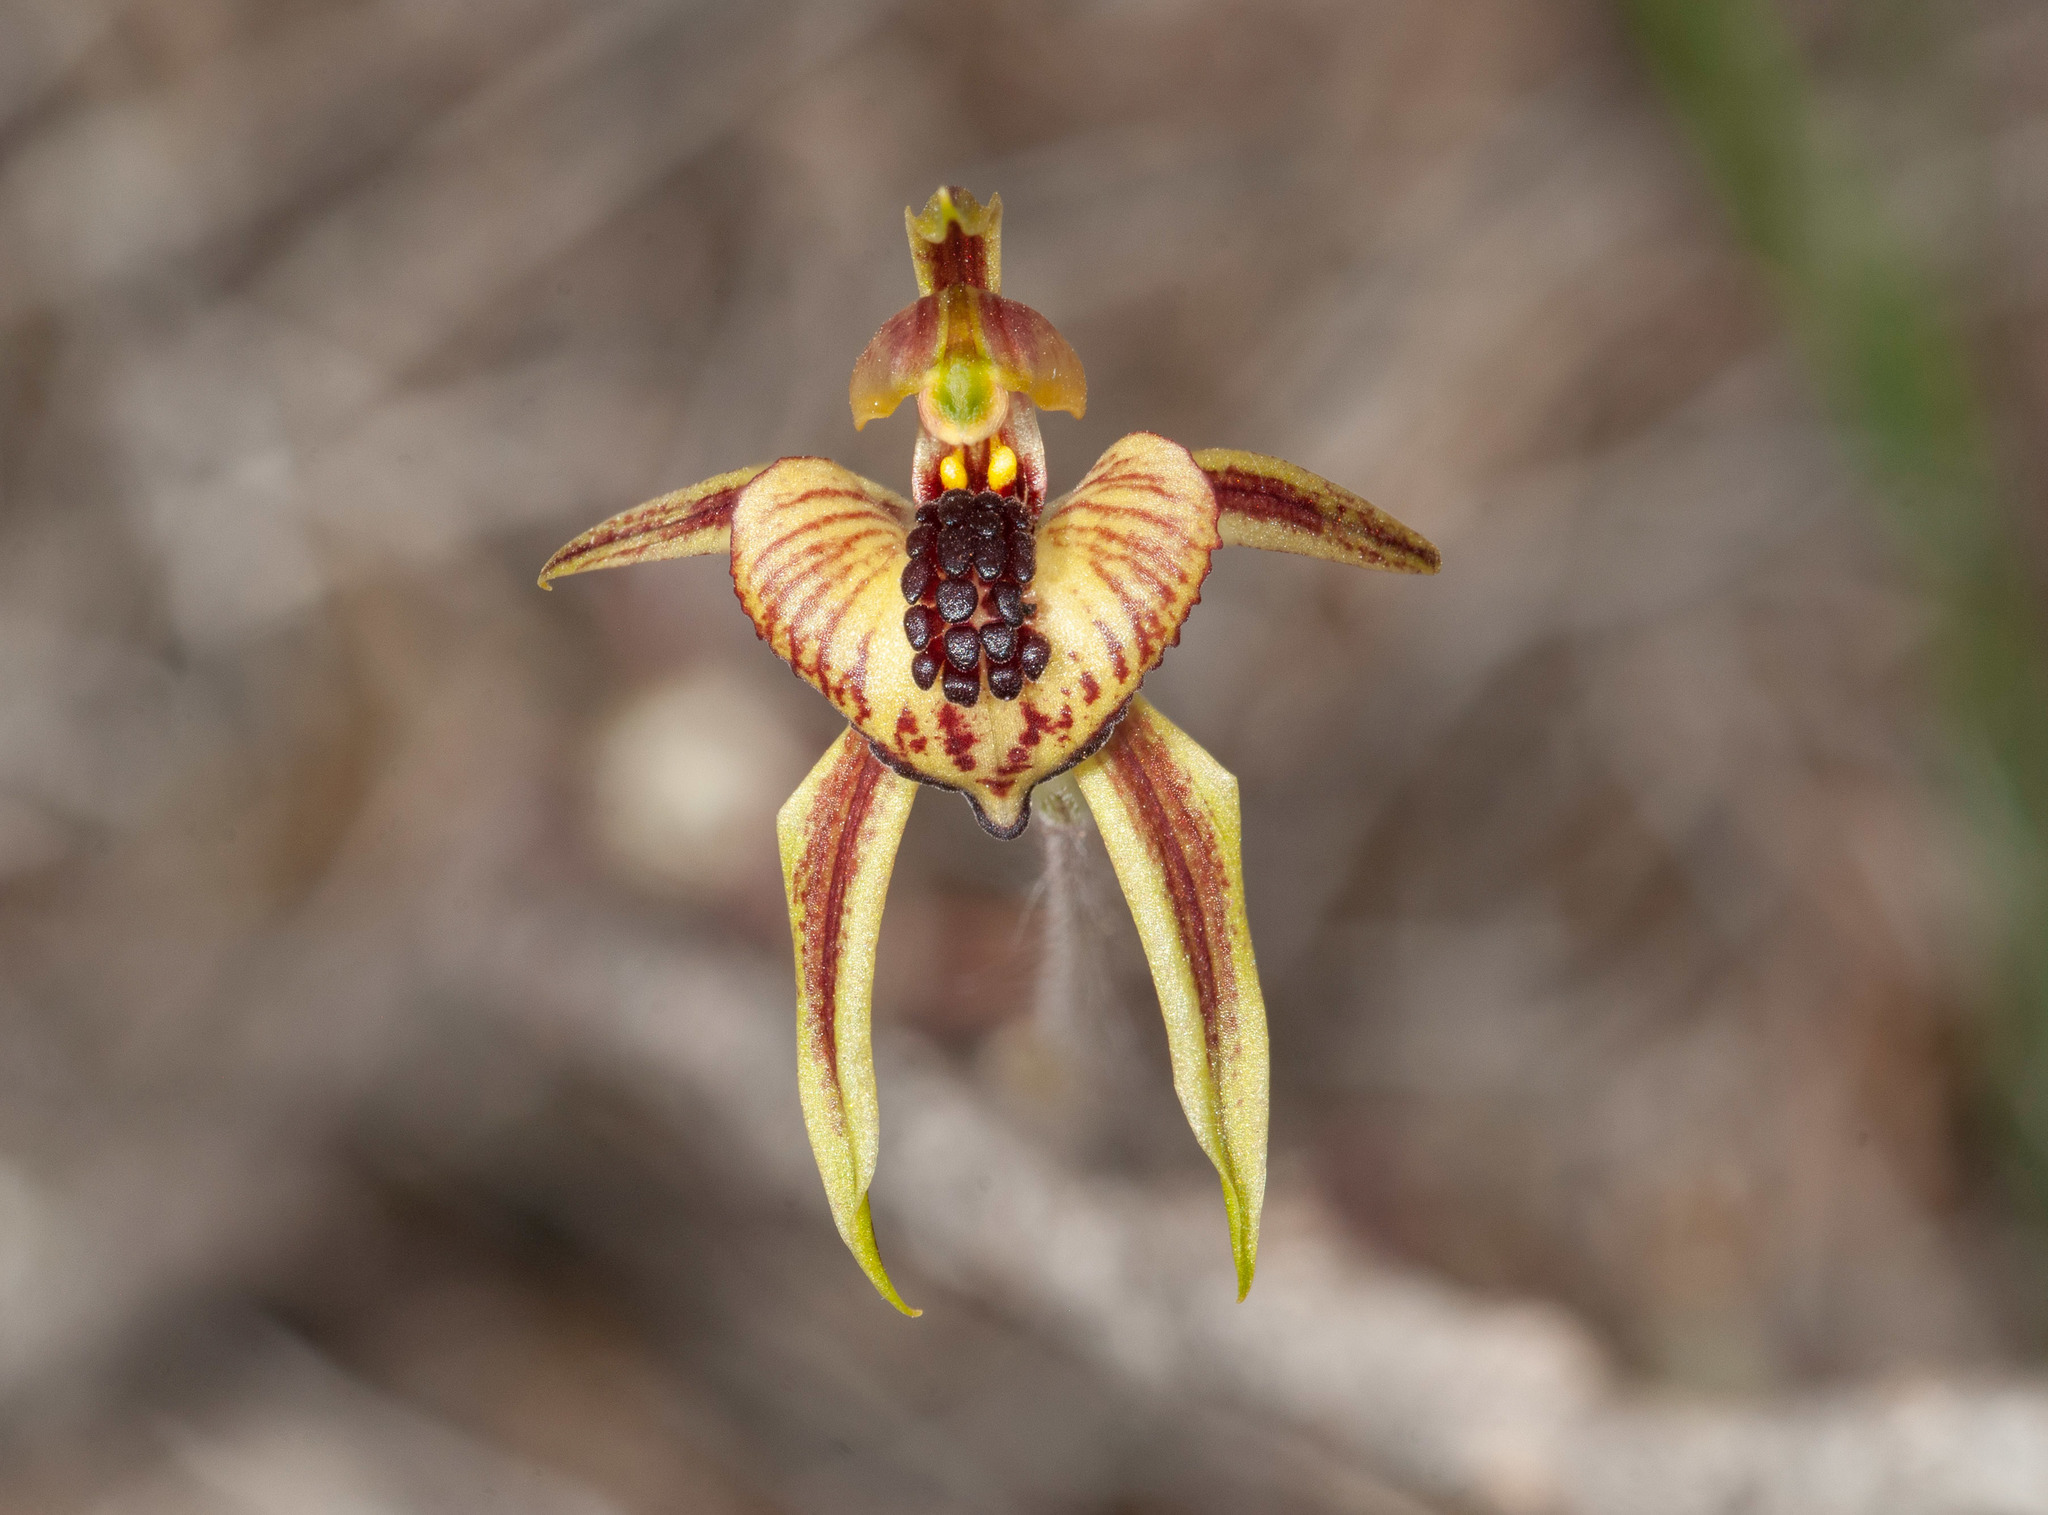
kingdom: Plantae
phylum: Tracheophyta
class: Liliopsida
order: Asparagales
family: Orchidaceae
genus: Caladenia
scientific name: Caladenia cardiochila
